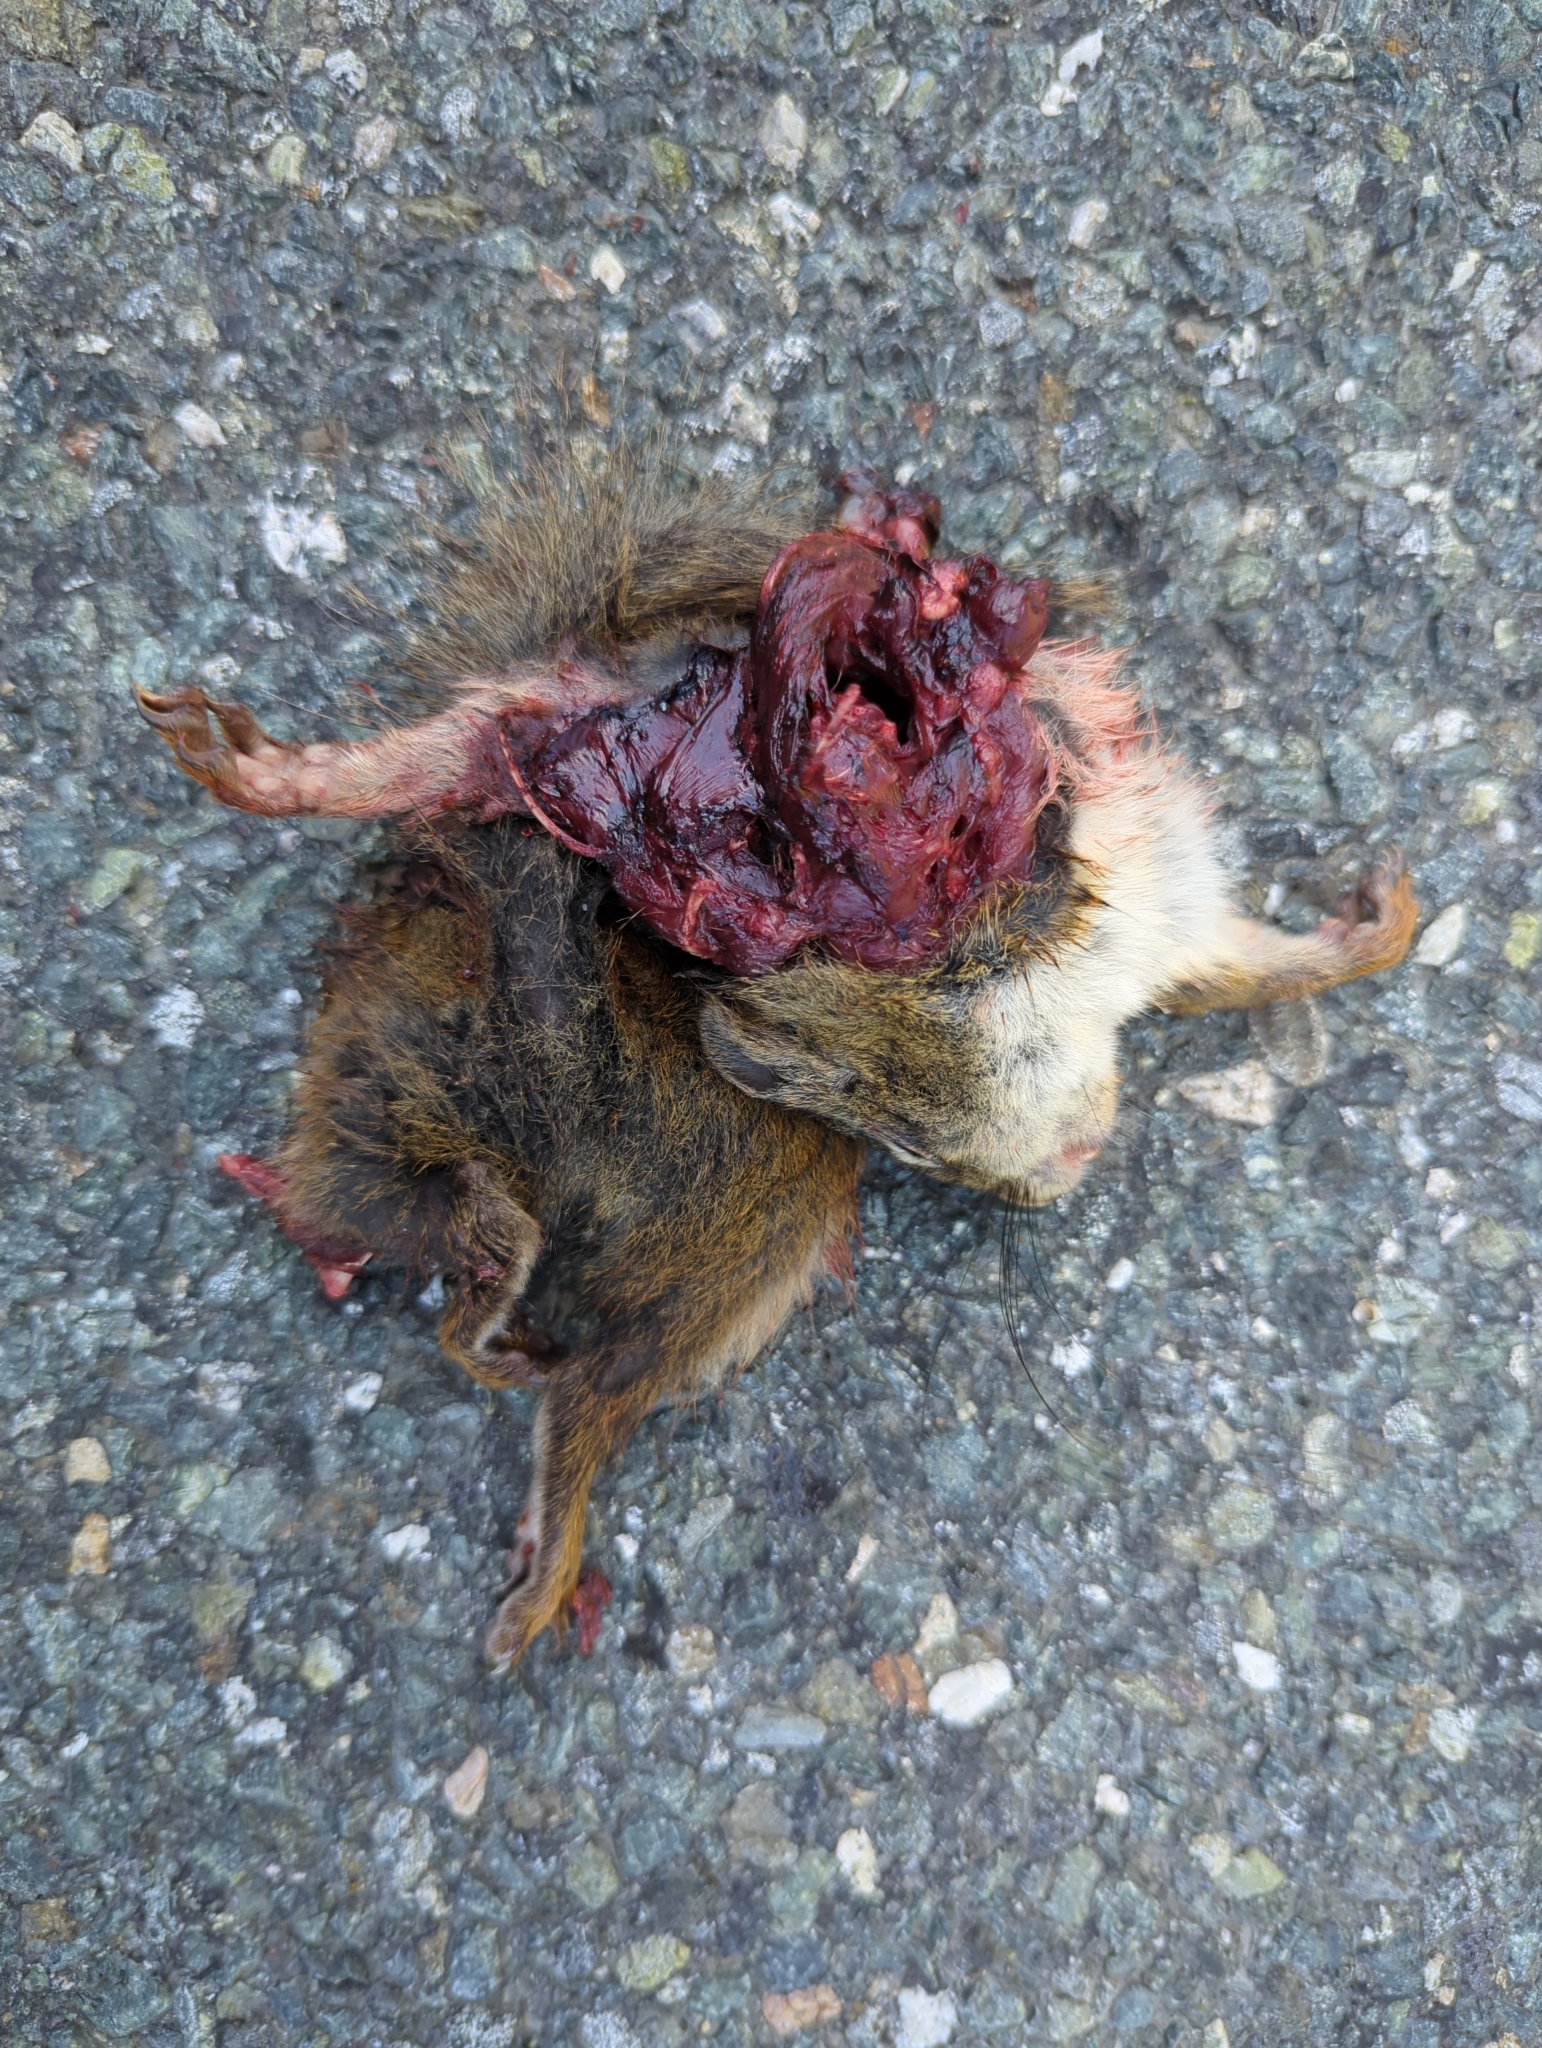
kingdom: Animalia
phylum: Chordata
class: Mammalia
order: Rodentia
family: Sciuridae
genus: Tamiasciurus
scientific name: Tamiasciurus hudsonicus
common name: Red squirrel
